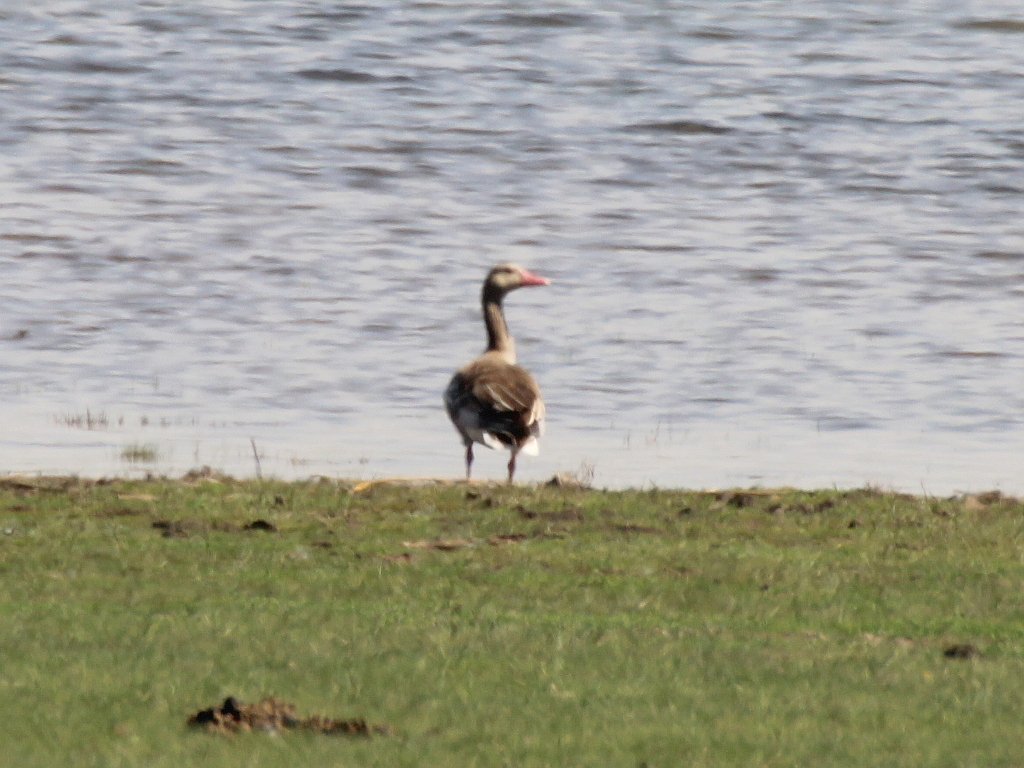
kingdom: Animalia
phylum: Chordata
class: Aves
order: Anseriformes
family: Anatidae
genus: Anser
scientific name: Anser anser
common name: Greylag goose
